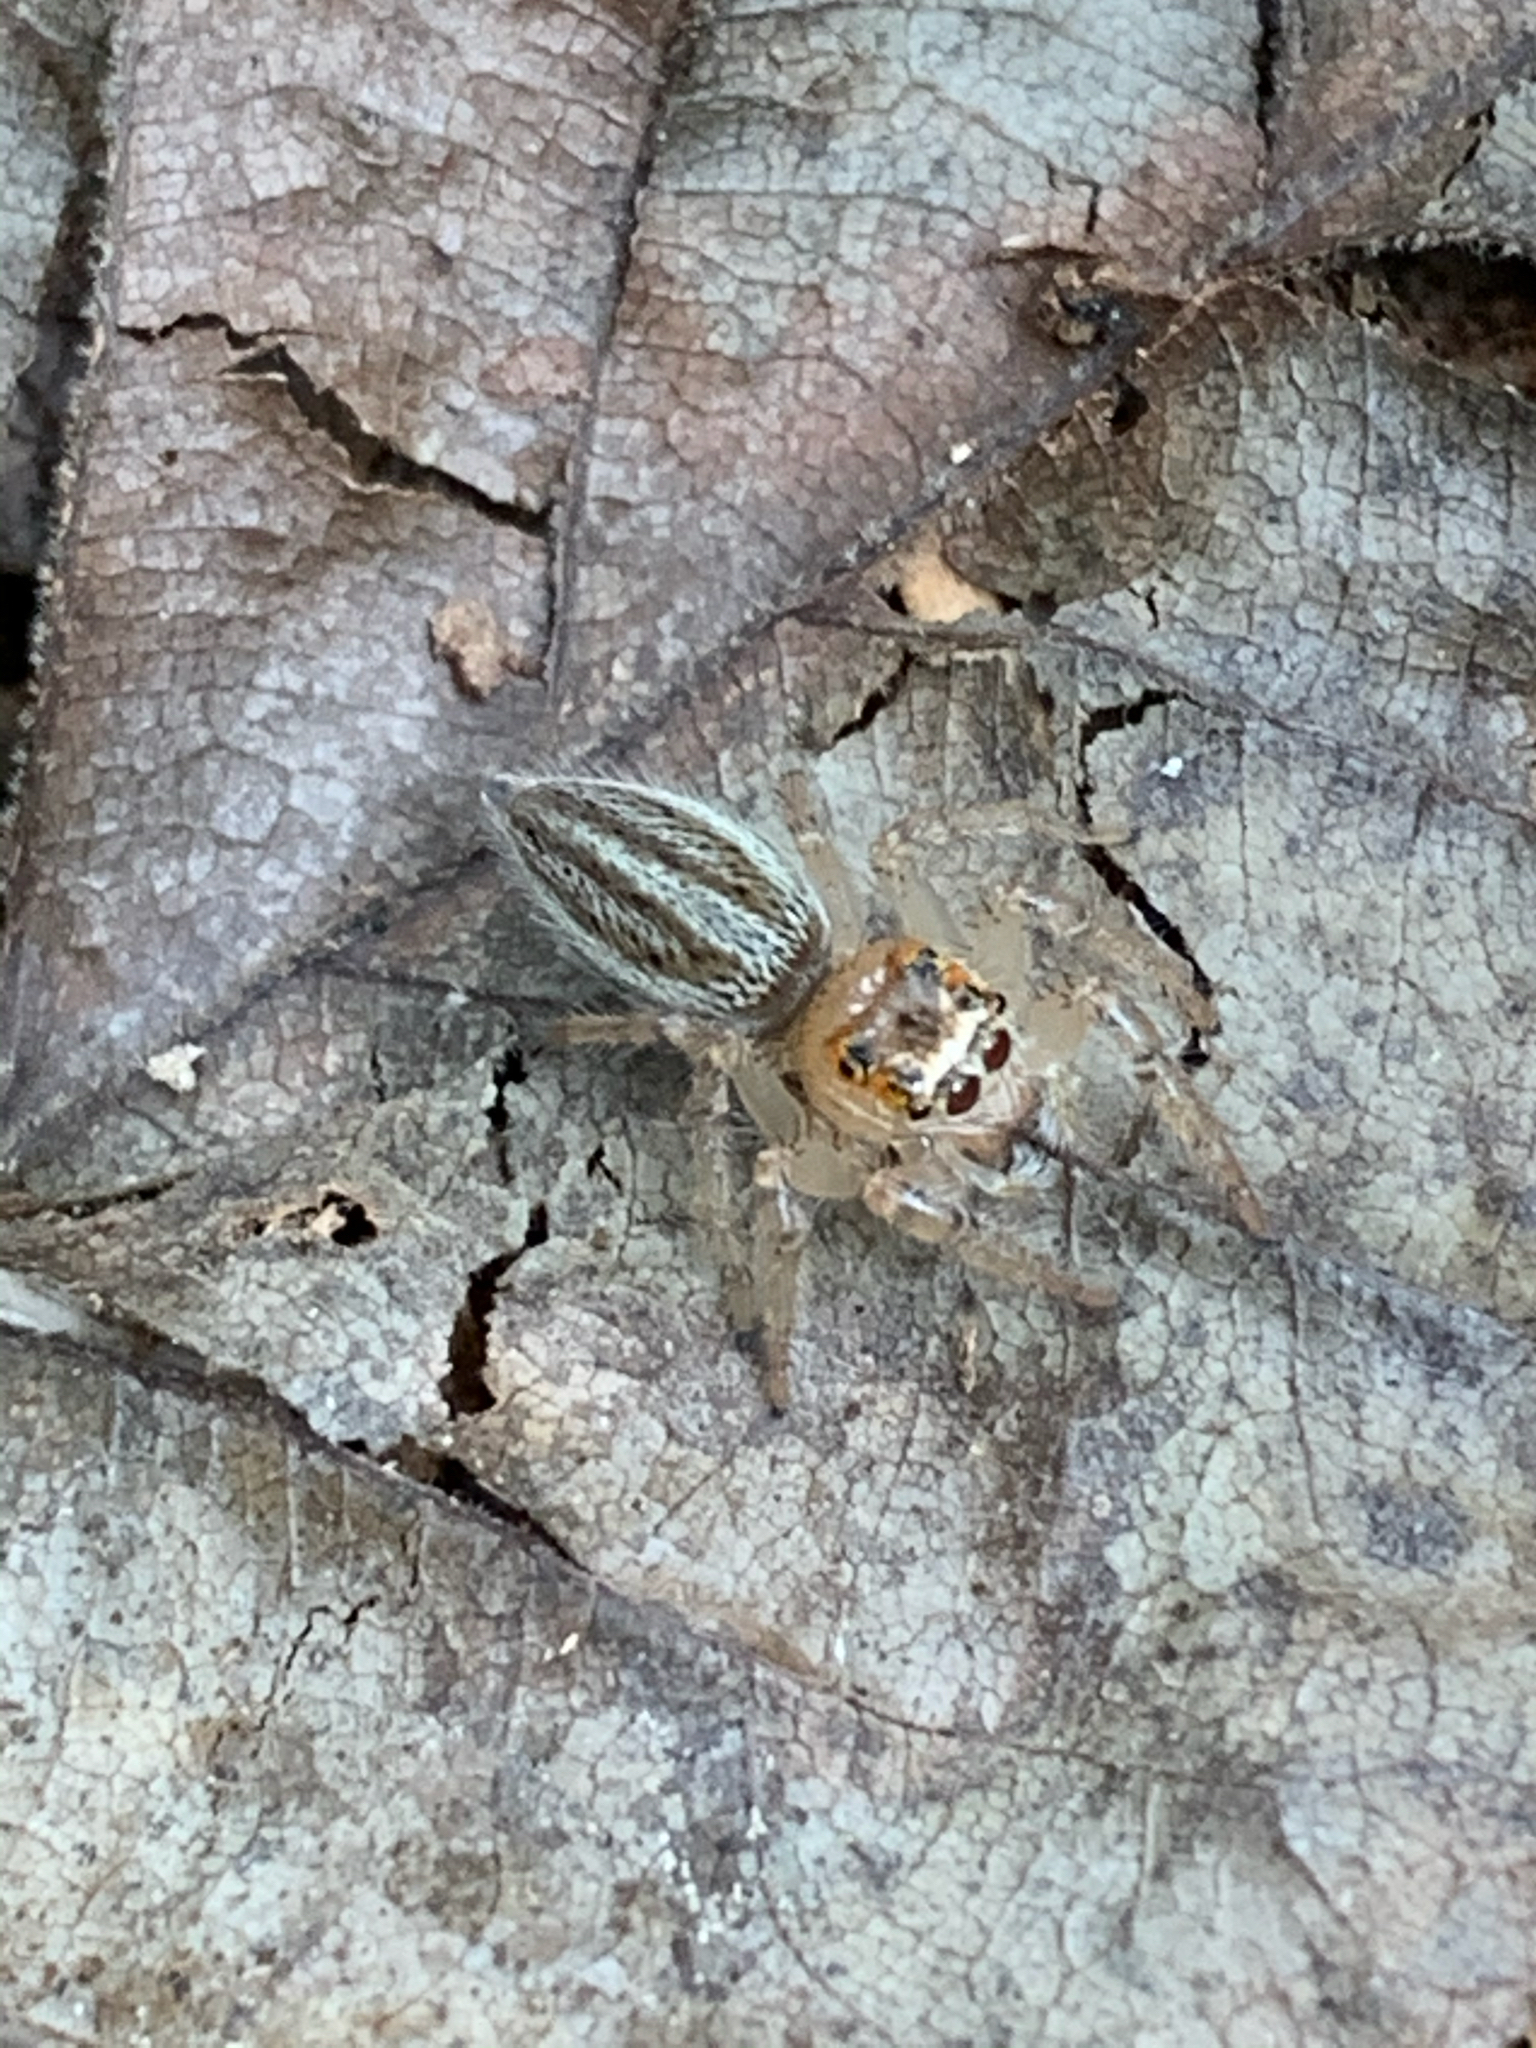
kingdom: Animalia
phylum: Arthropoda
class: Arachnida
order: Araneae
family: Salticidae
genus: Colonus
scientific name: Colonus sylvanus
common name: Jumping spiders
